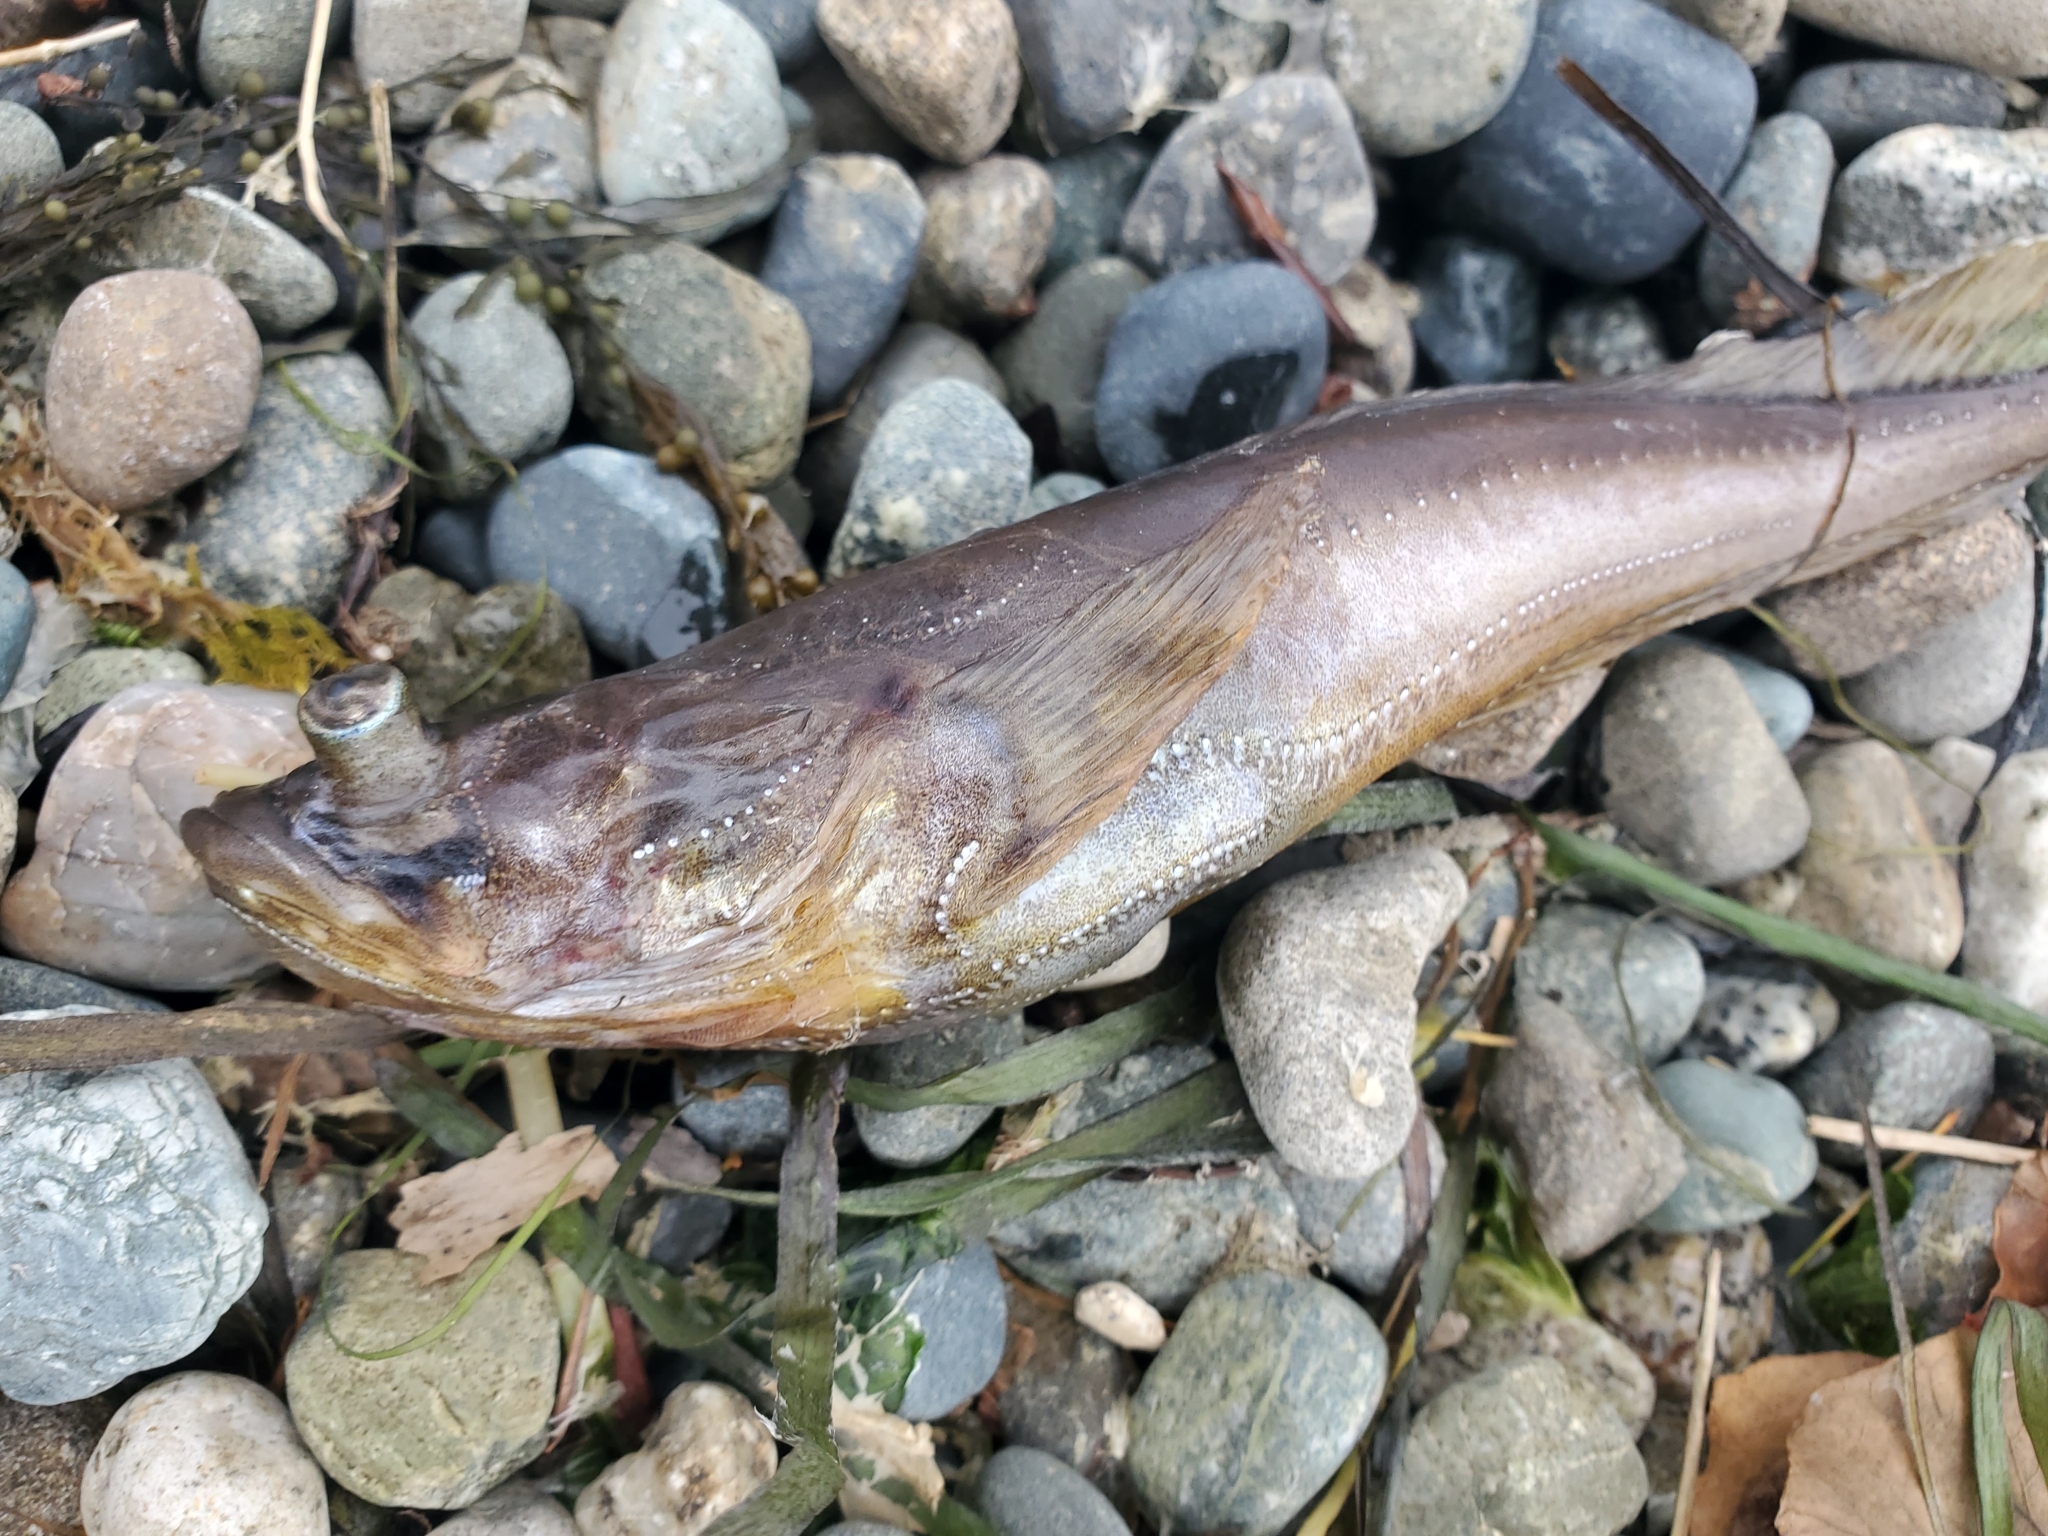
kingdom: Animalia
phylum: Chordata
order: Batrachoidiformes
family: Batrachoididae
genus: Porichthys
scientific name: Porichthys notatus
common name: Plainfin midshipman
